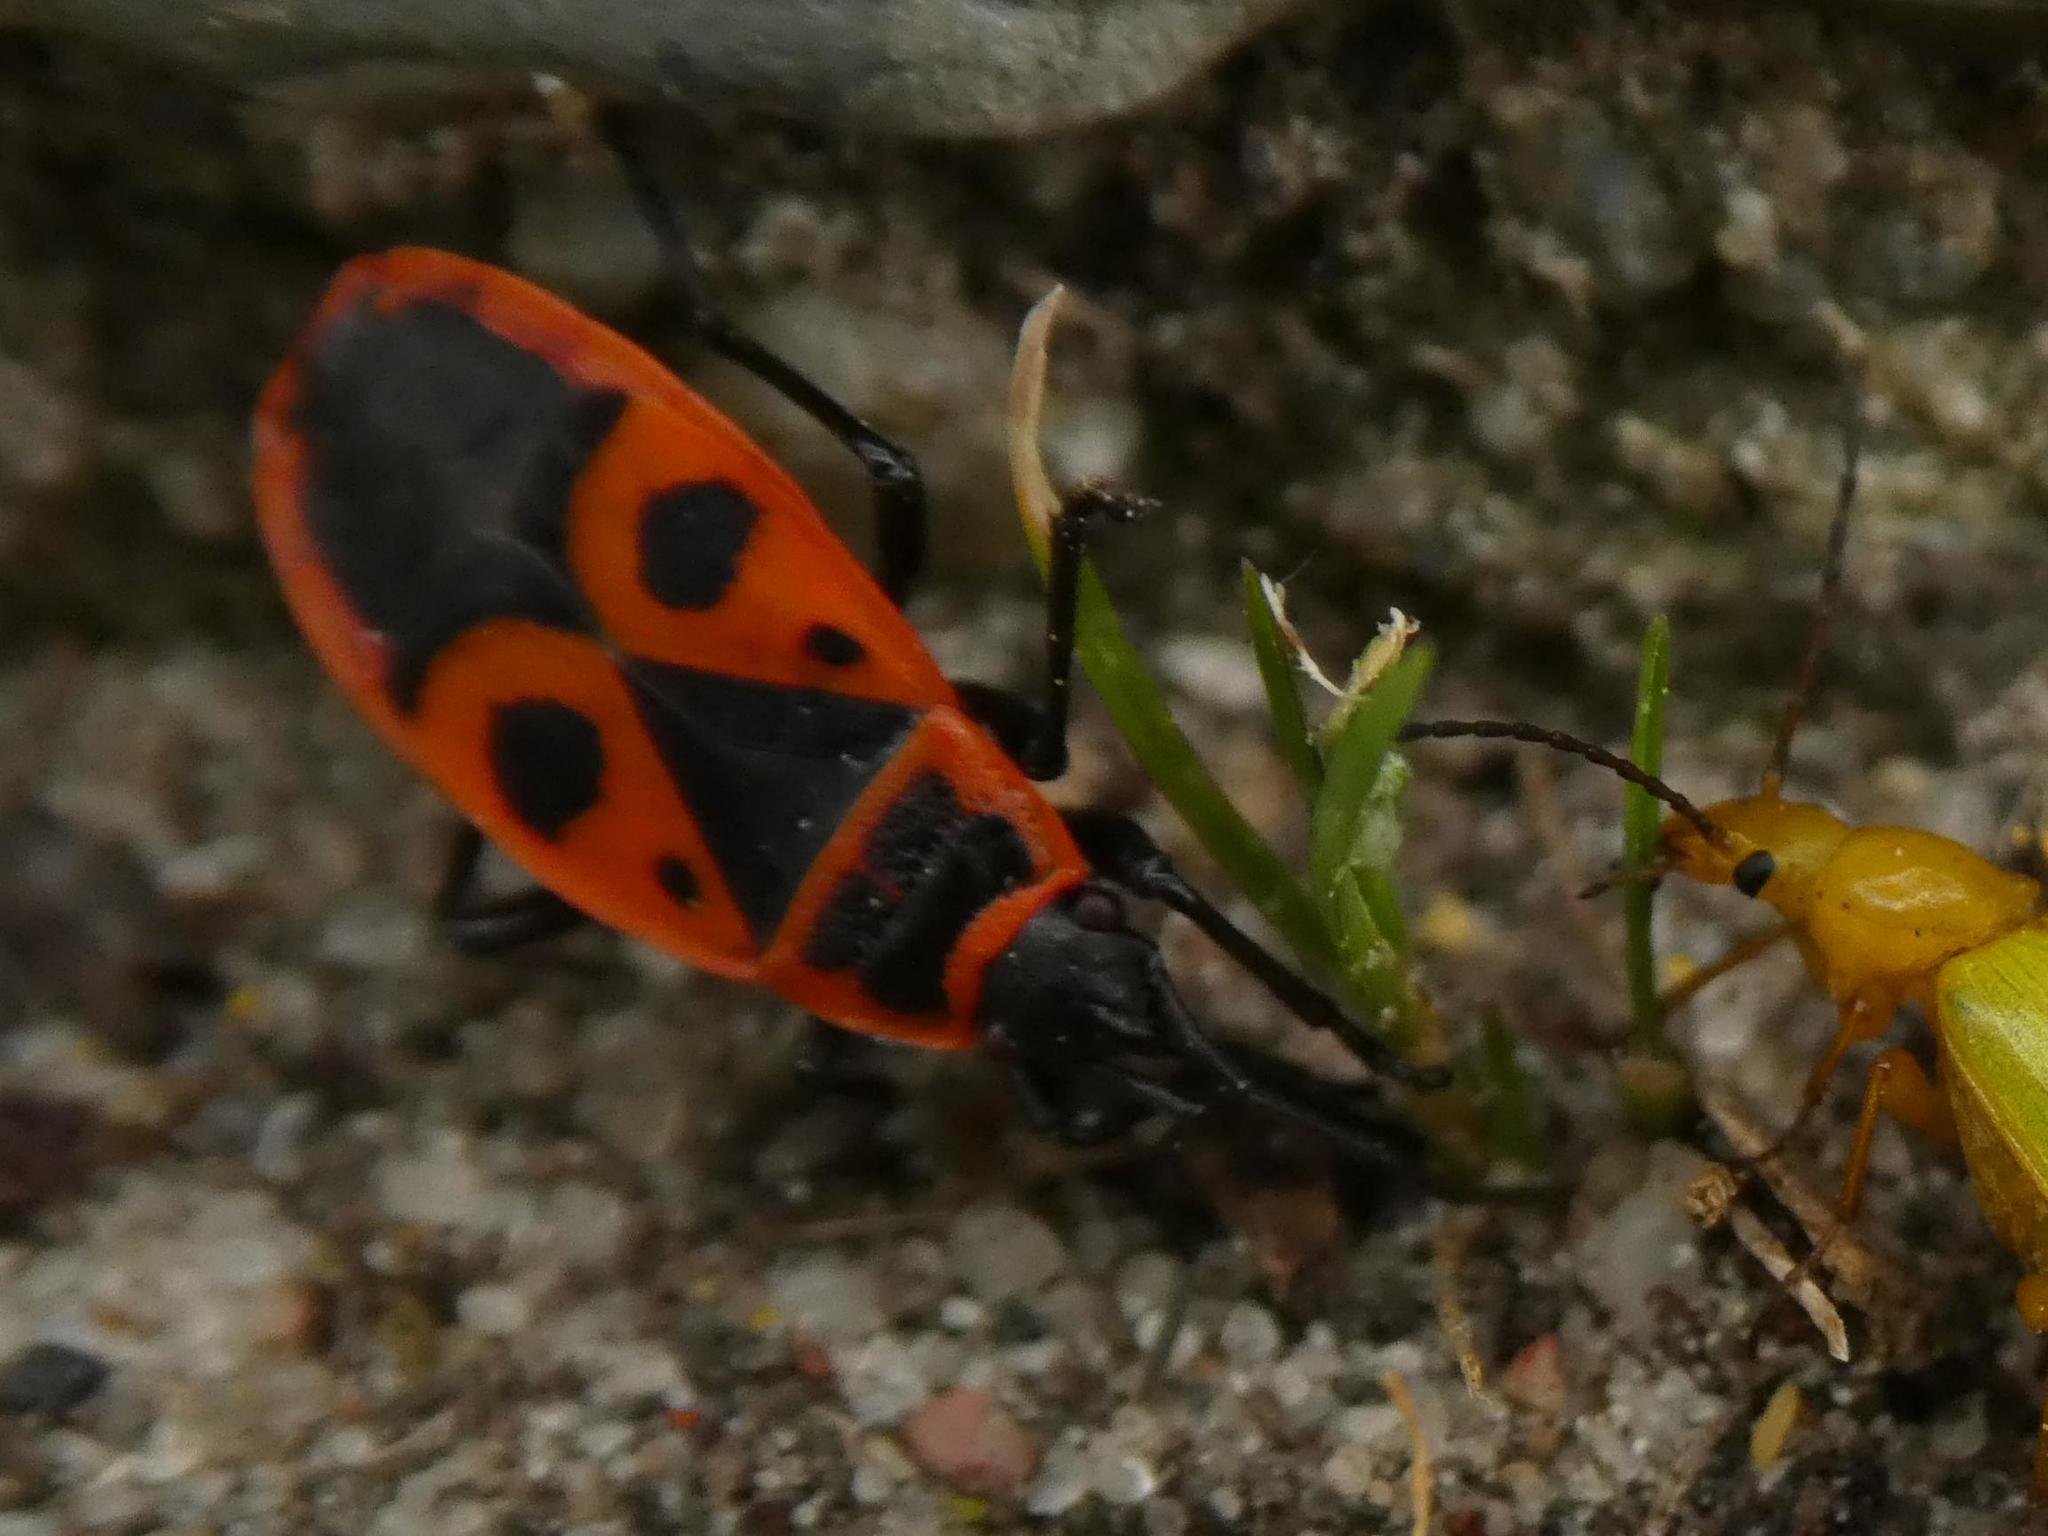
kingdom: Animalia
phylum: Arthropoda
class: Insecta
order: Hemiptera
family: Pyrrhocoridae
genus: Pyrrhocoris
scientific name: Pyrrhocoris apterus
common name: Firebug
